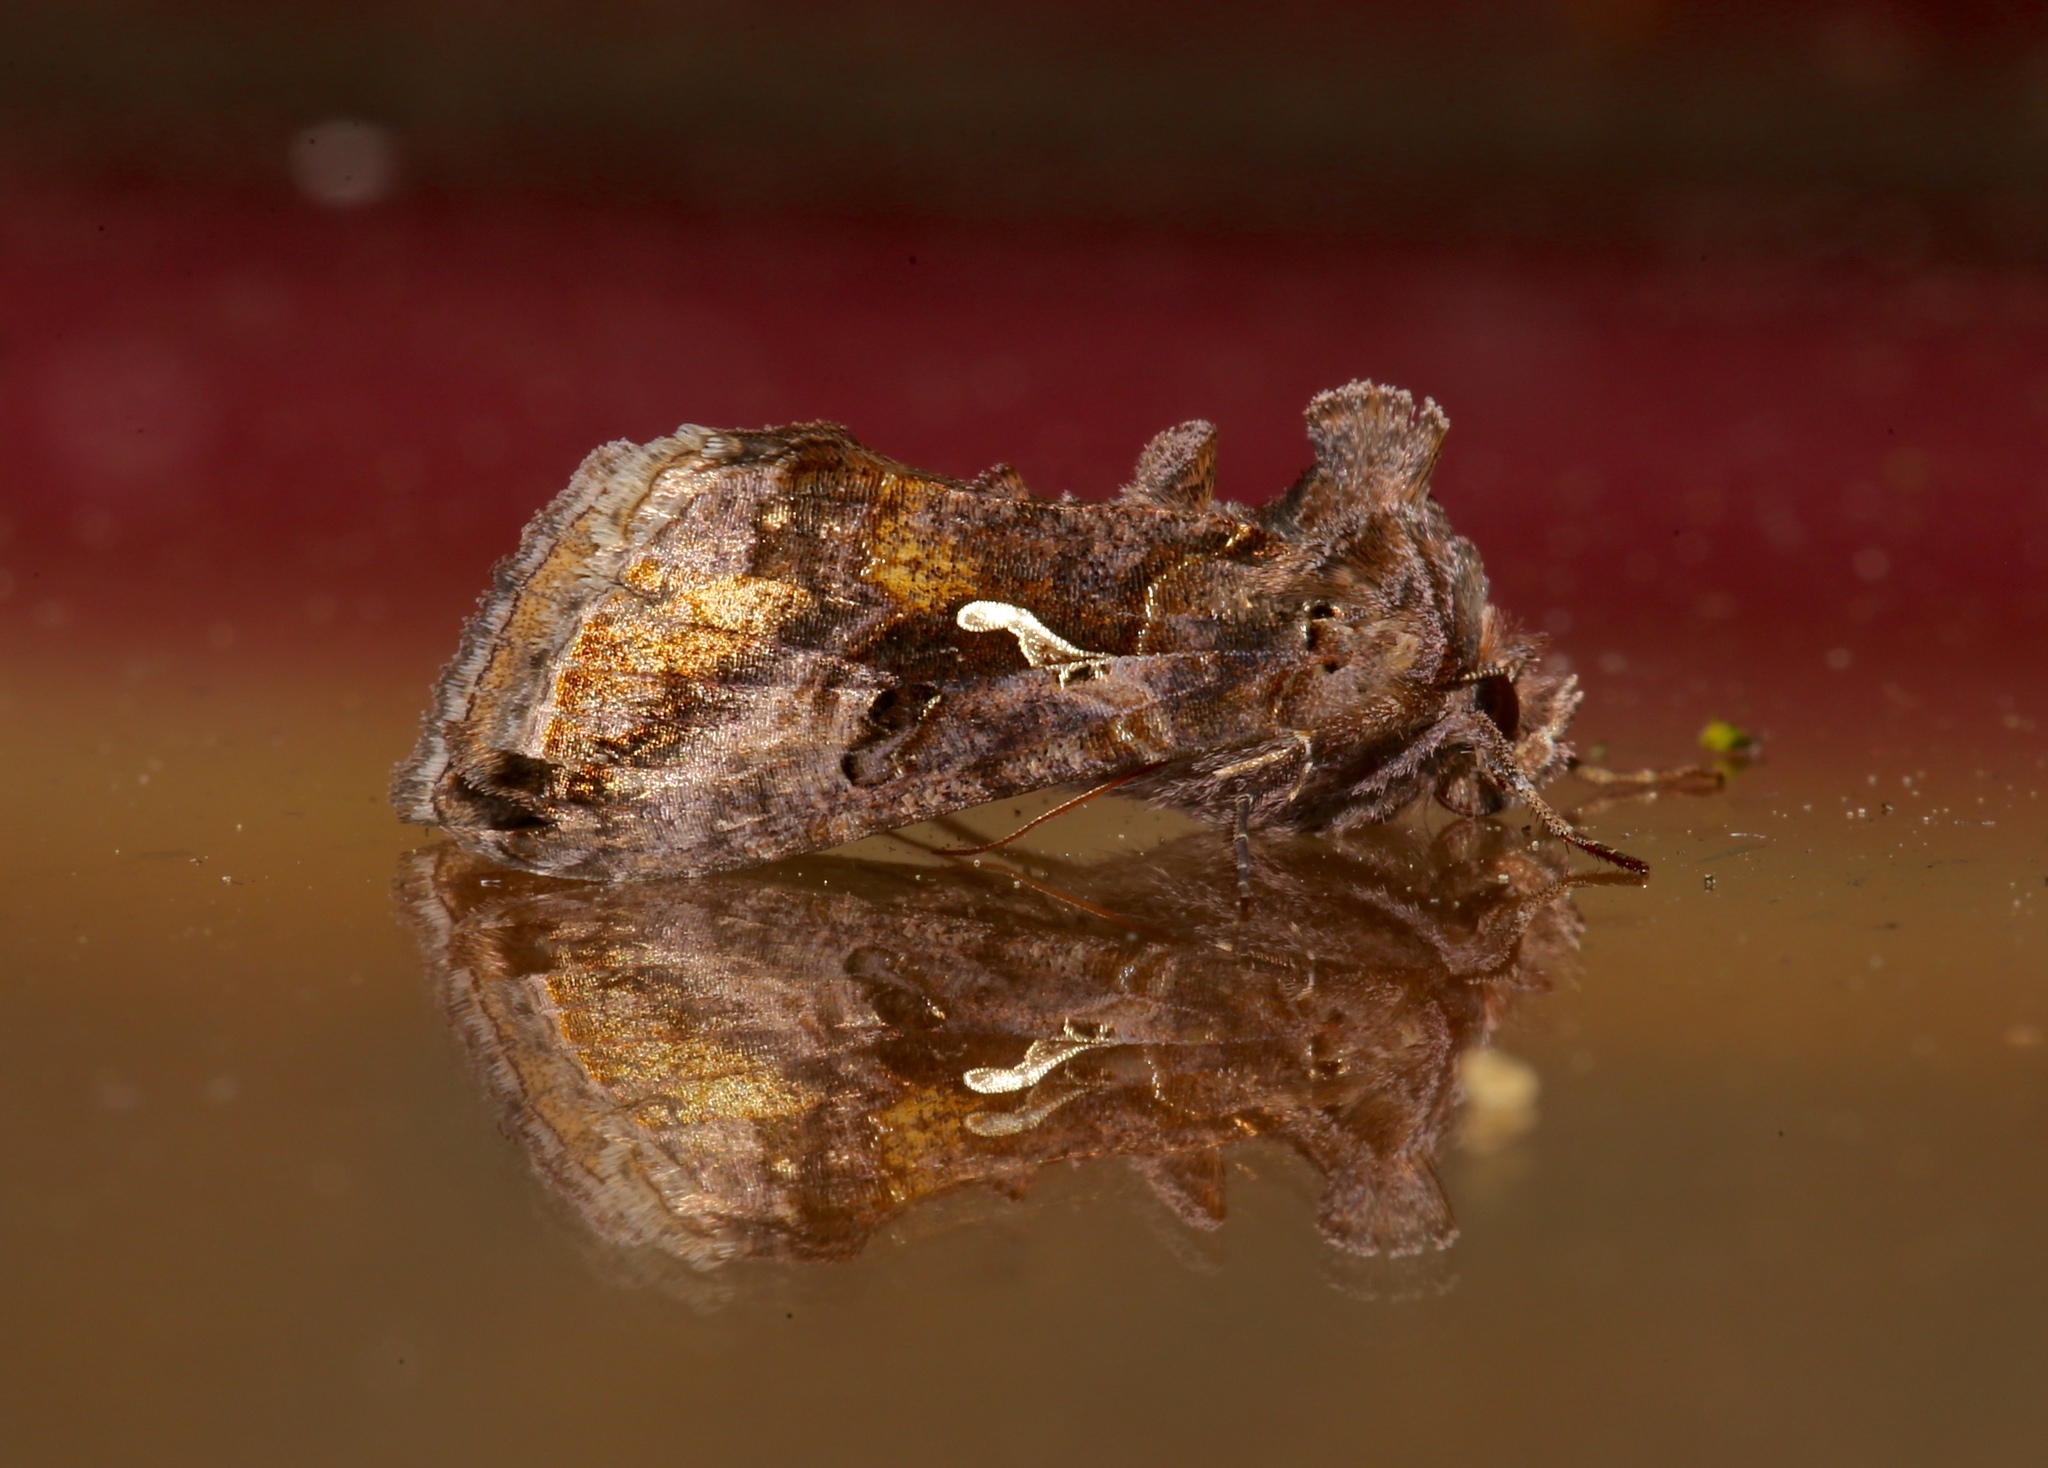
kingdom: Animalia
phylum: Arthropoda
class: Insecta
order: Lepidoptera
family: Noctuidae
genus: Autographa
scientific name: Autographa precationis
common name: Common looper moth
